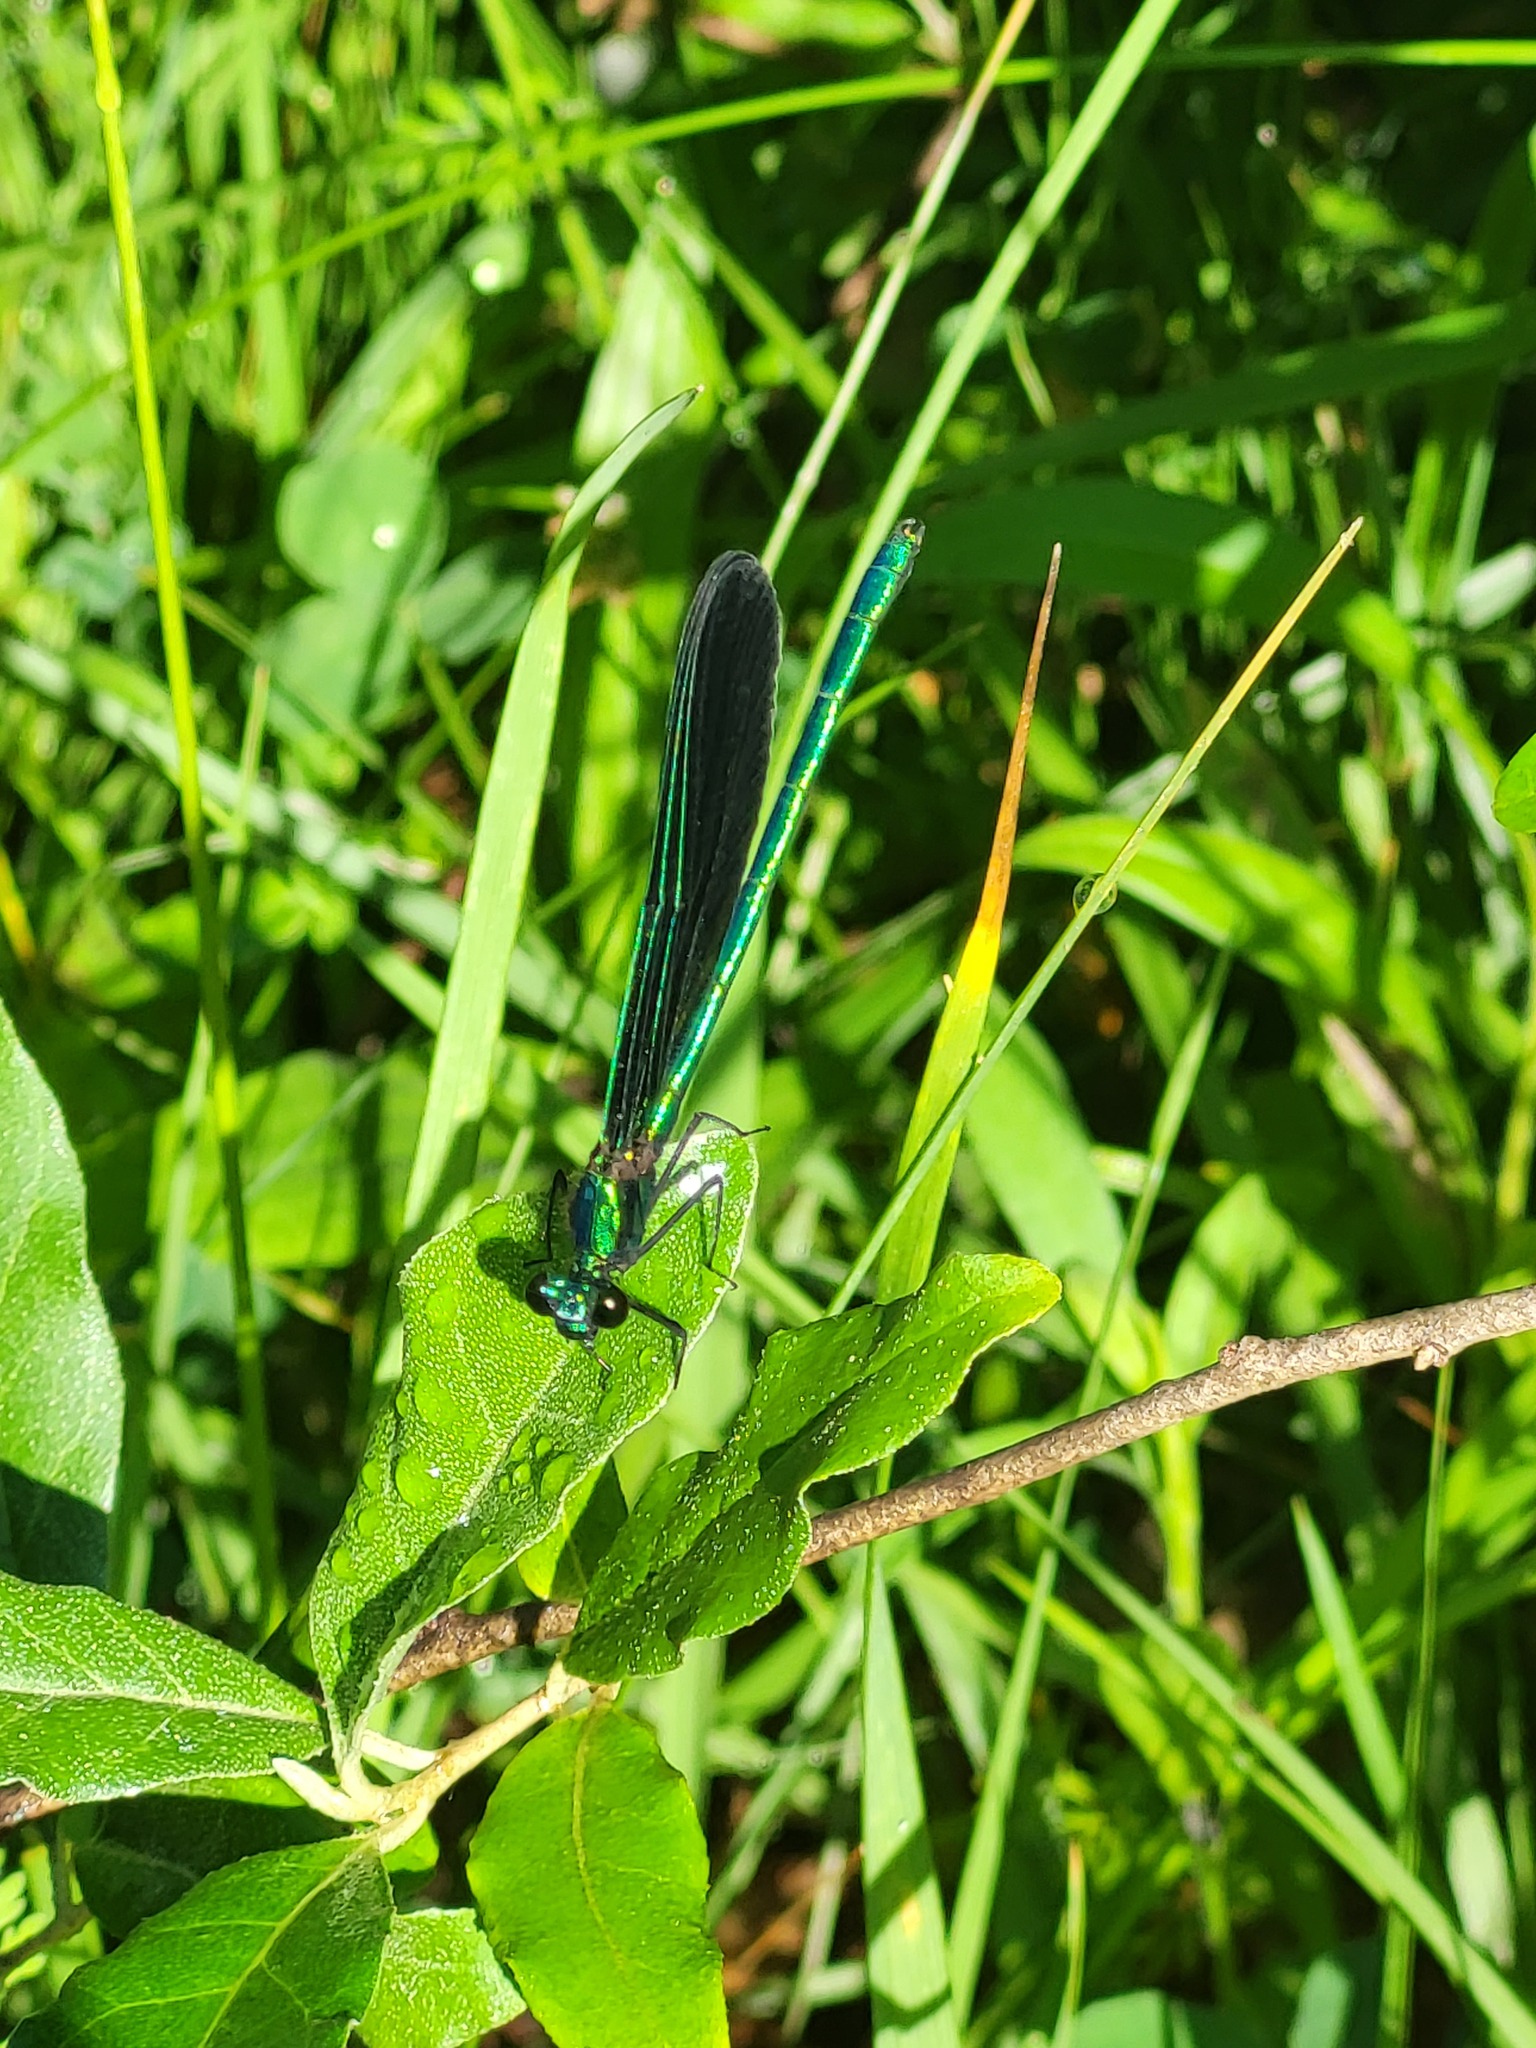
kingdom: Animalia
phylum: Arthropoda
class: Insecta
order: Odonata
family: Calopterygidae
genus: Calopteryx
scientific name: Calopteryx maculata
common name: Ebony jewelwing
